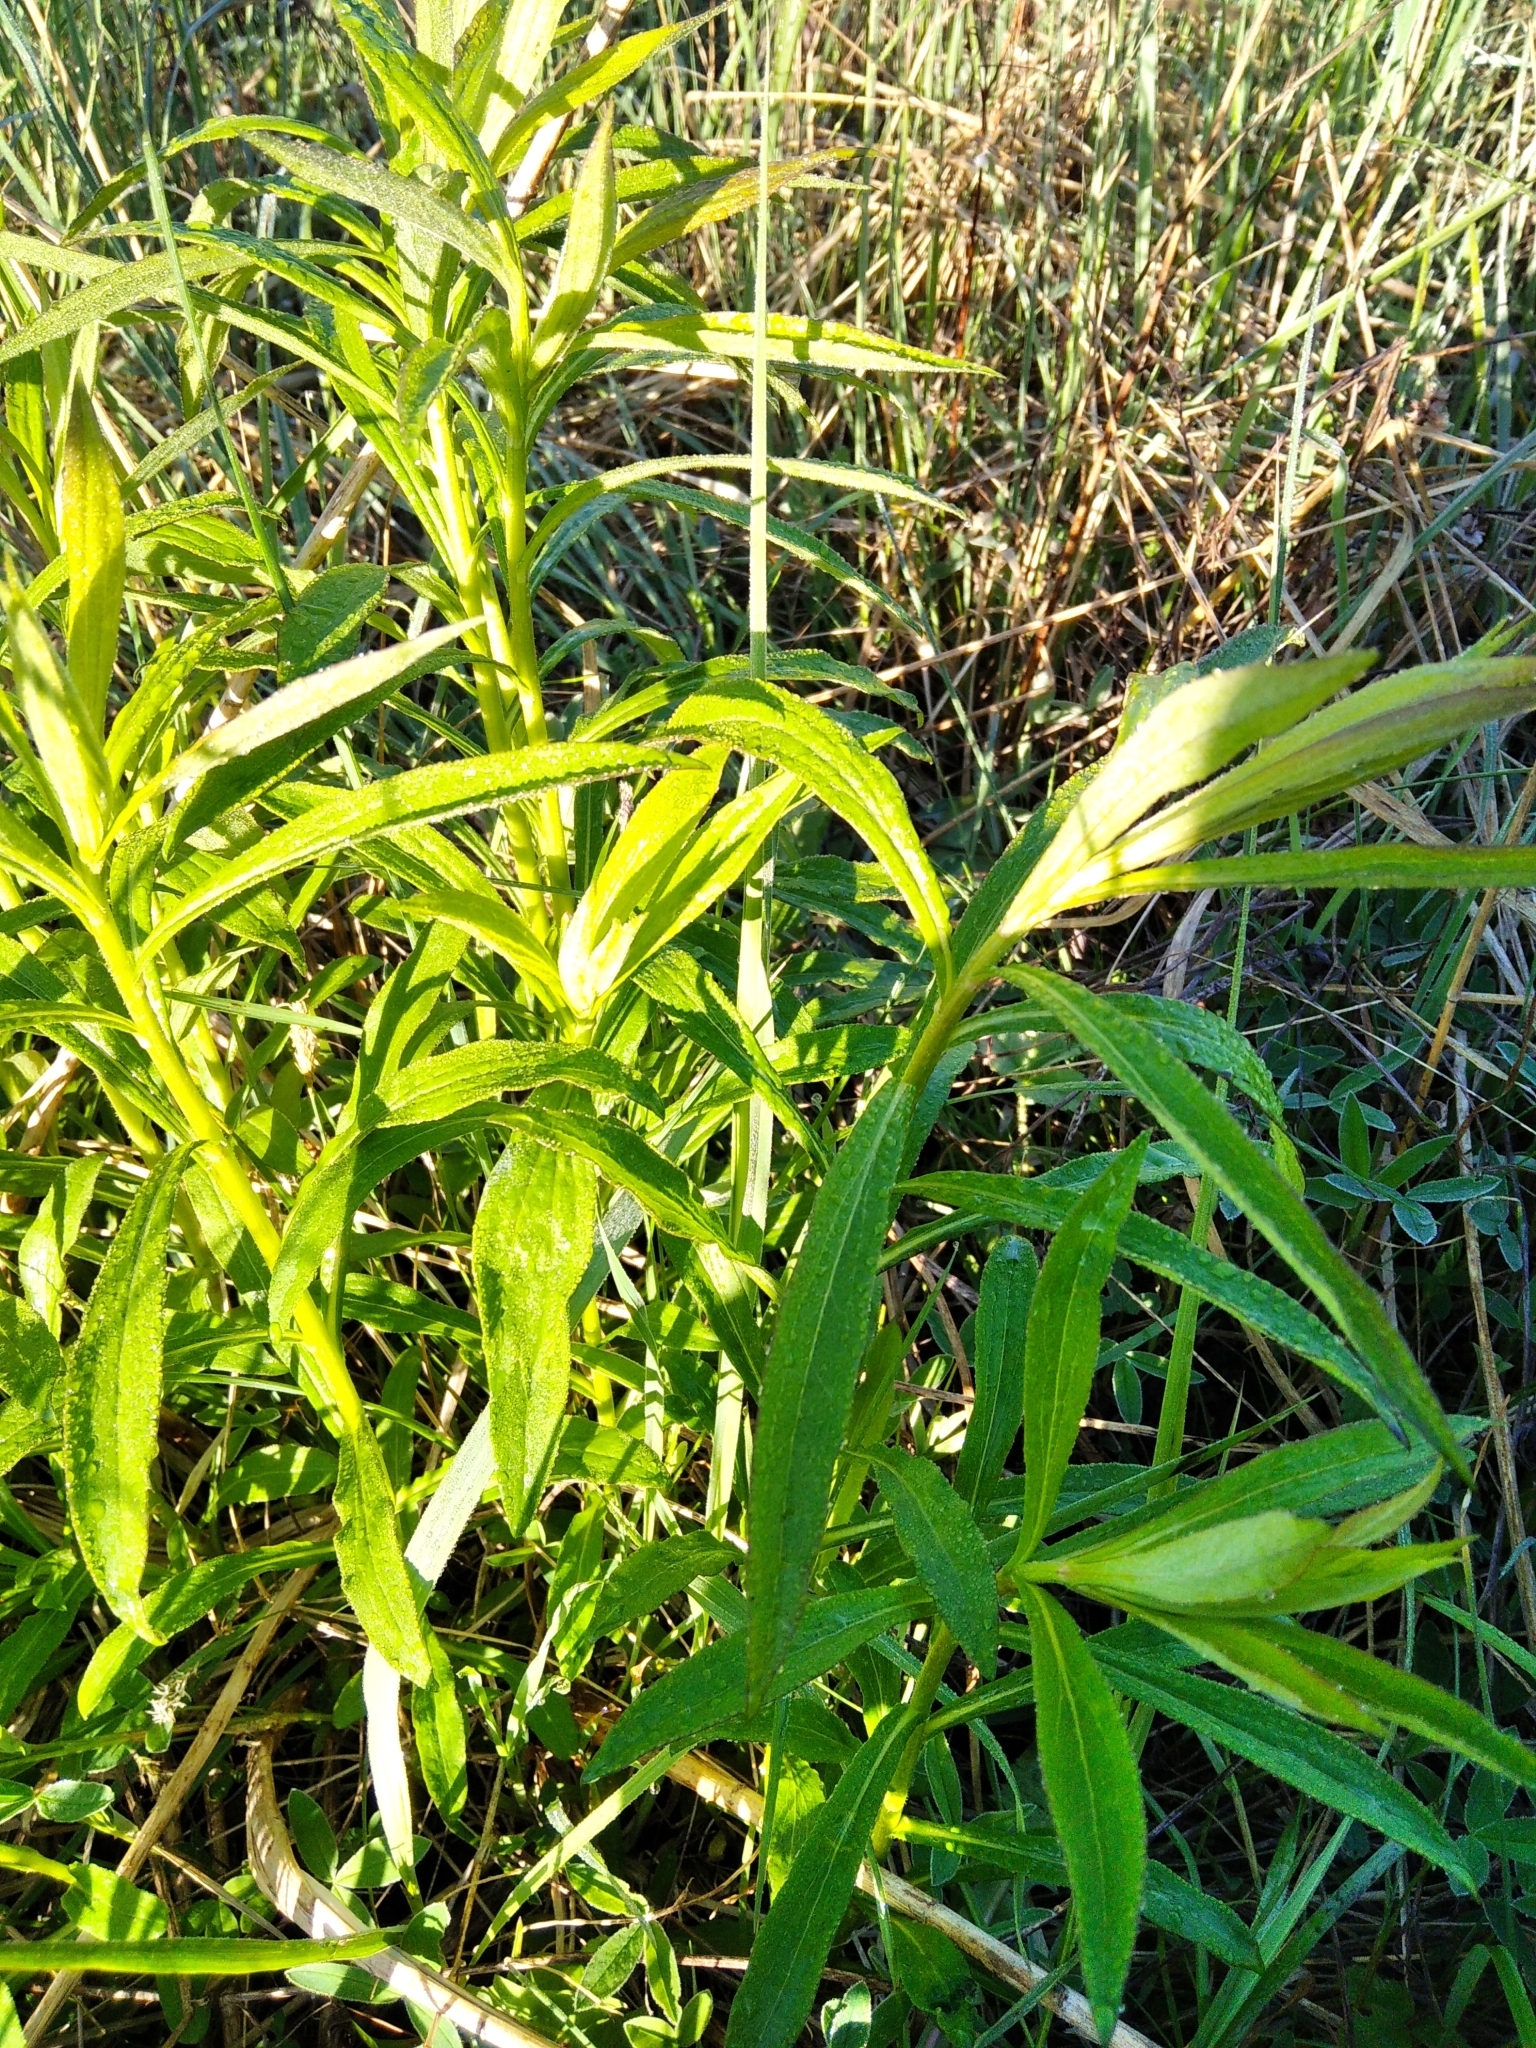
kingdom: Plantae
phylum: Tracheophyta
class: Magnoliopsida
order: Asterales
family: Asteraceae
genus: Solidago
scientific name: Solidago canadensis
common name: Canada goldenrod
